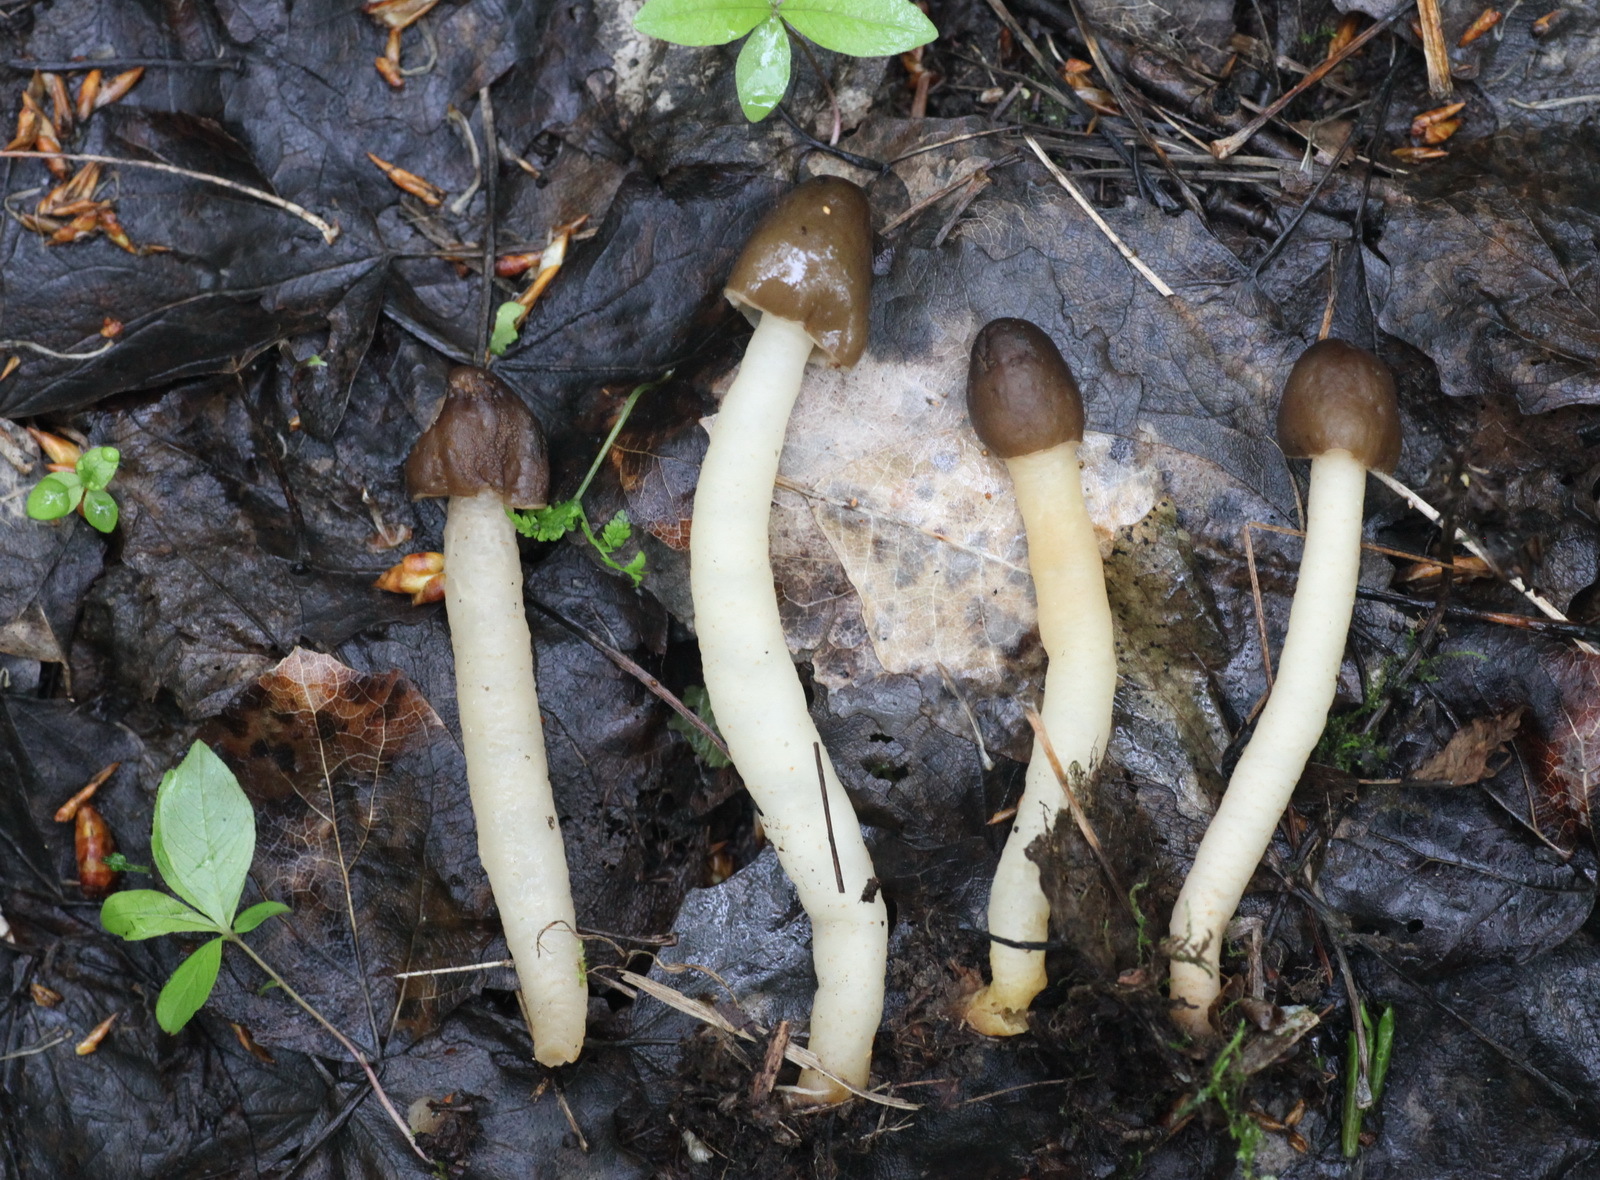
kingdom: Fungi
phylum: Ascomycota
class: Pezizomycetes
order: Pezizales
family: Morchellaceae
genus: Verpa
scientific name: Verpa conica
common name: Thimble morel
